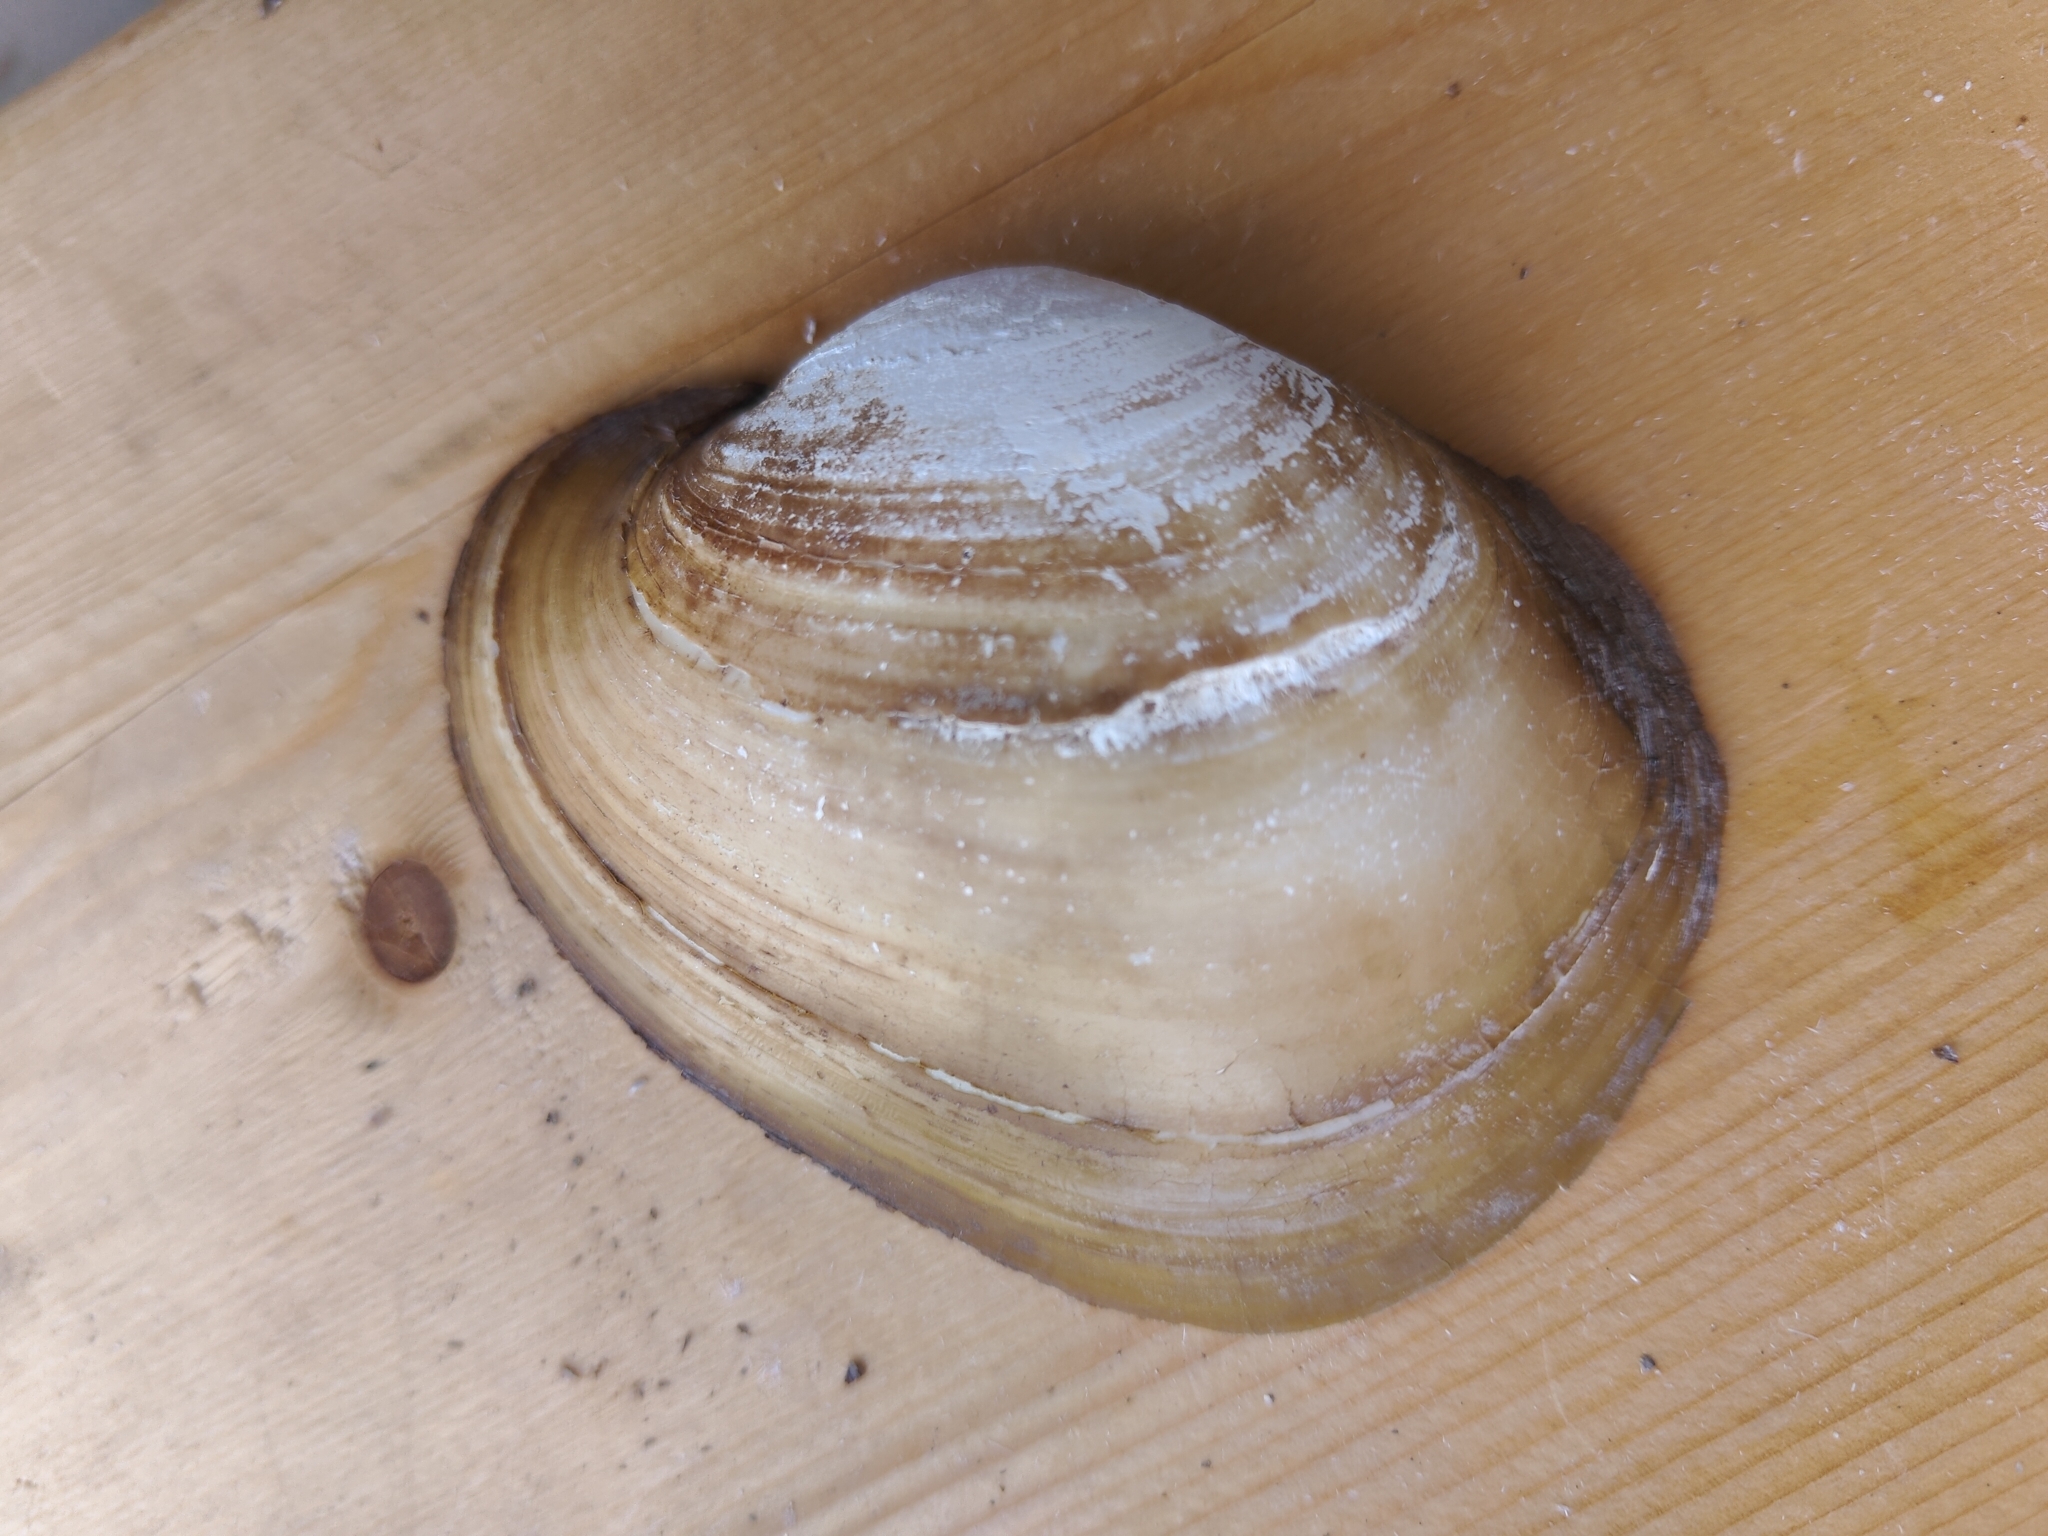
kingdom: Animalia
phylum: Mollusca
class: Bivalvia
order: Unionida
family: Unionidae
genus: Lampsilis
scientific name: Lampsilis cardium
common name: Plain pocketbook
